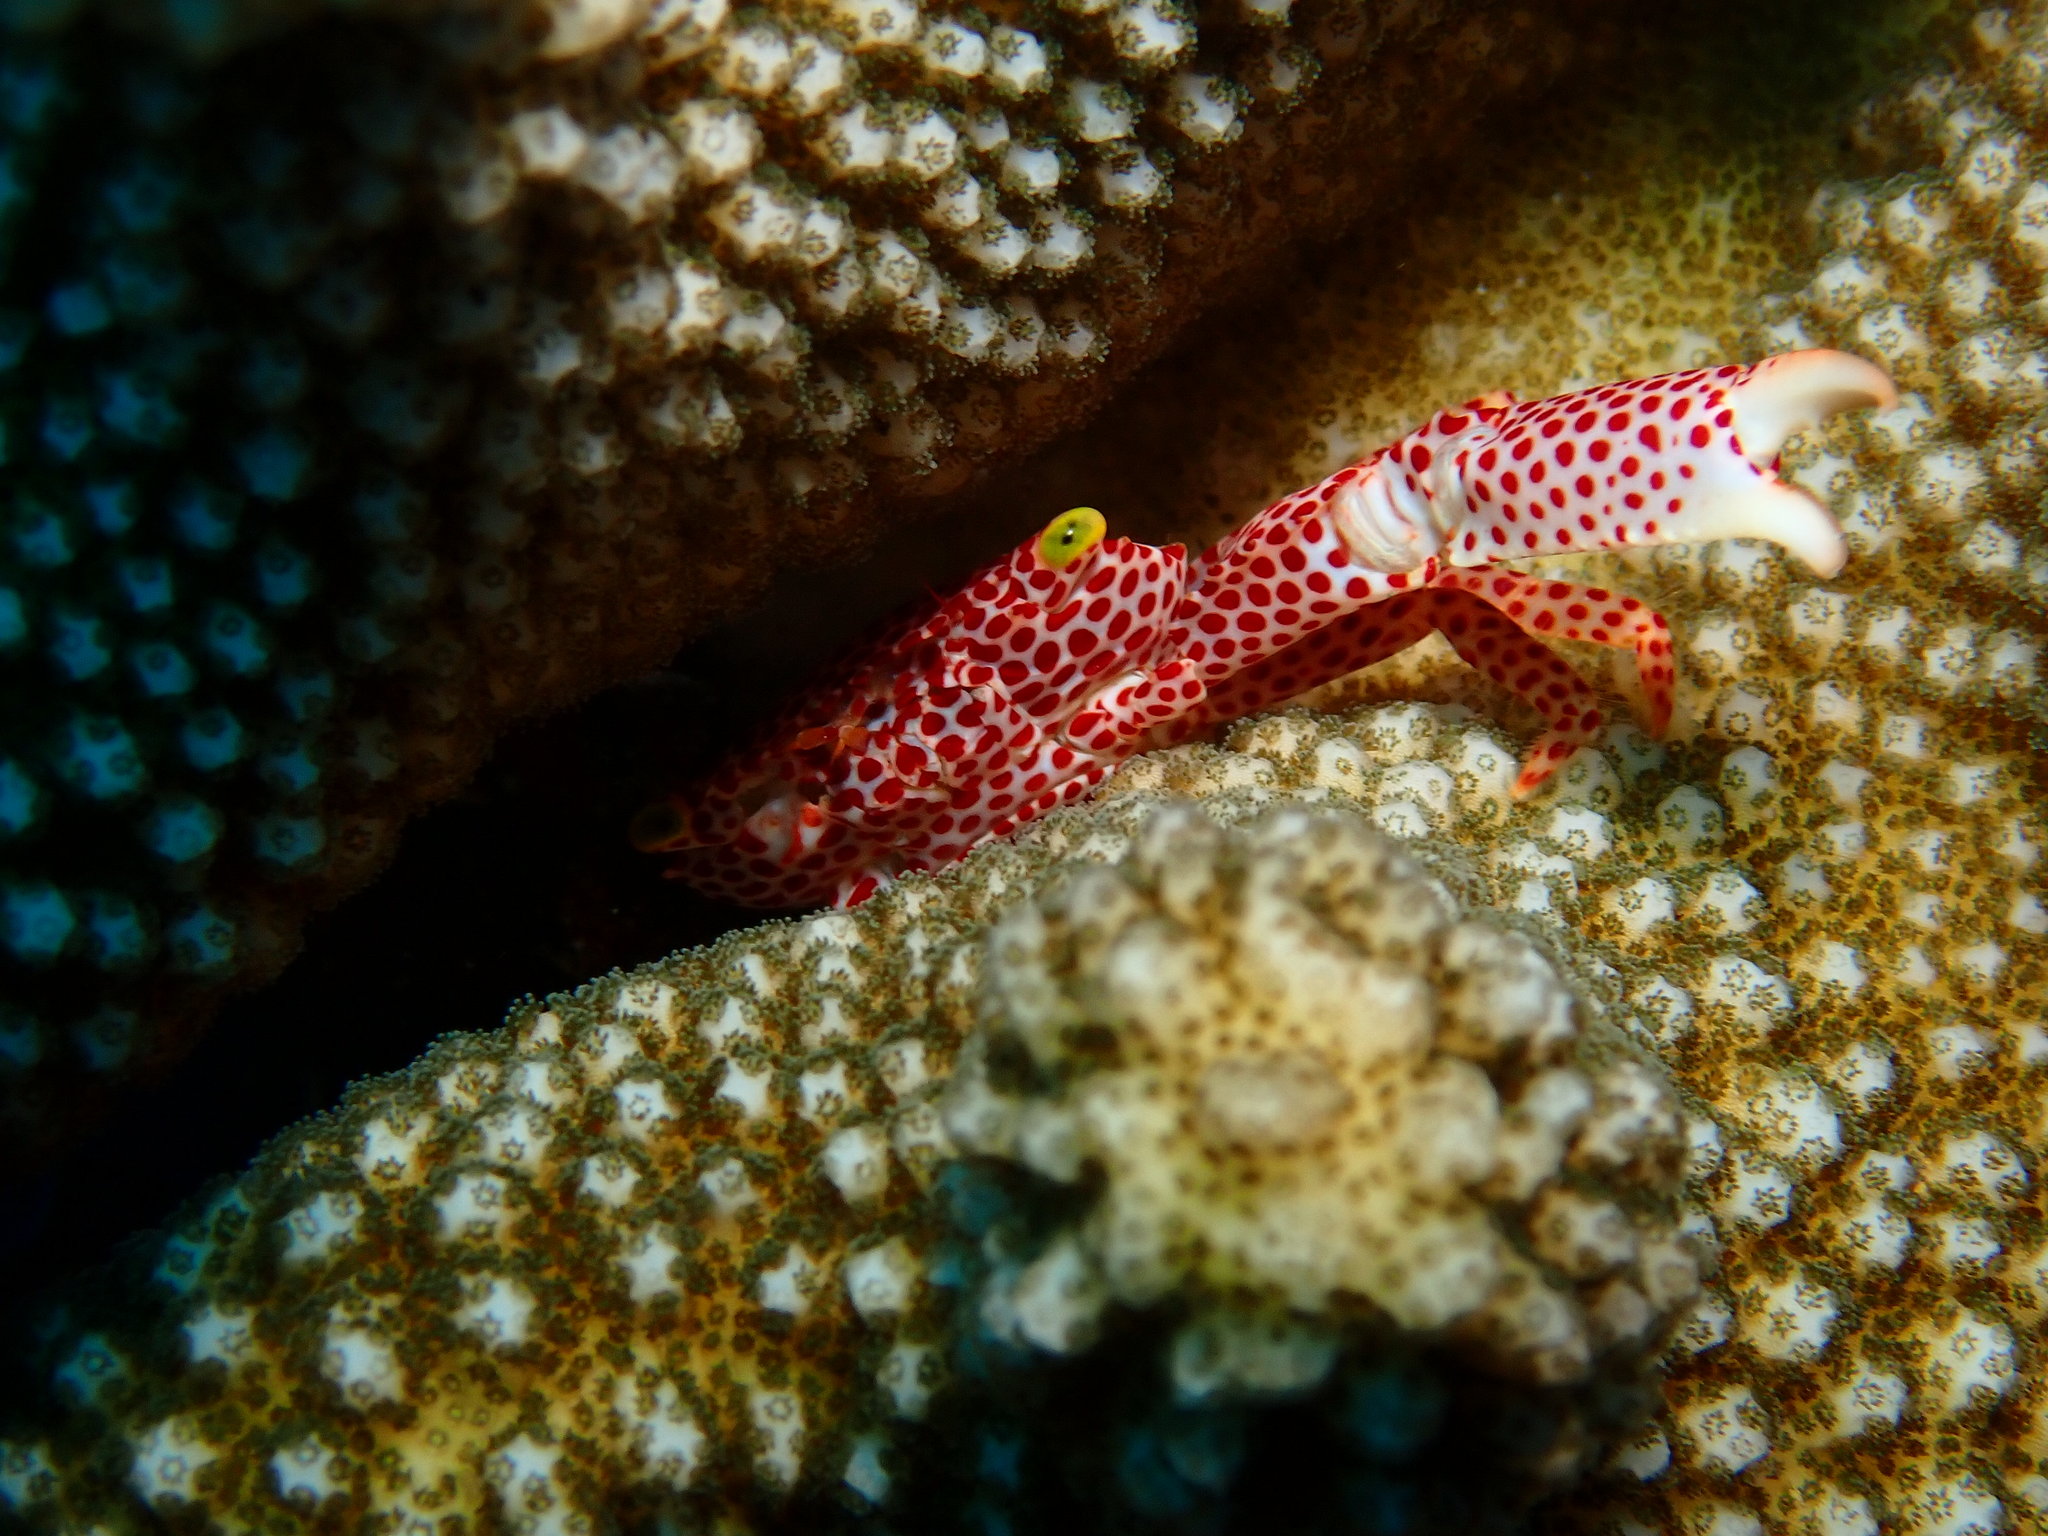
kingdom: Animalia
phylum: Arthropoda
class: Malacostraca
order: Decapoda
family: Trapeziidae
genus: Trapezia
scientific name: Trapezia rufopunctata
